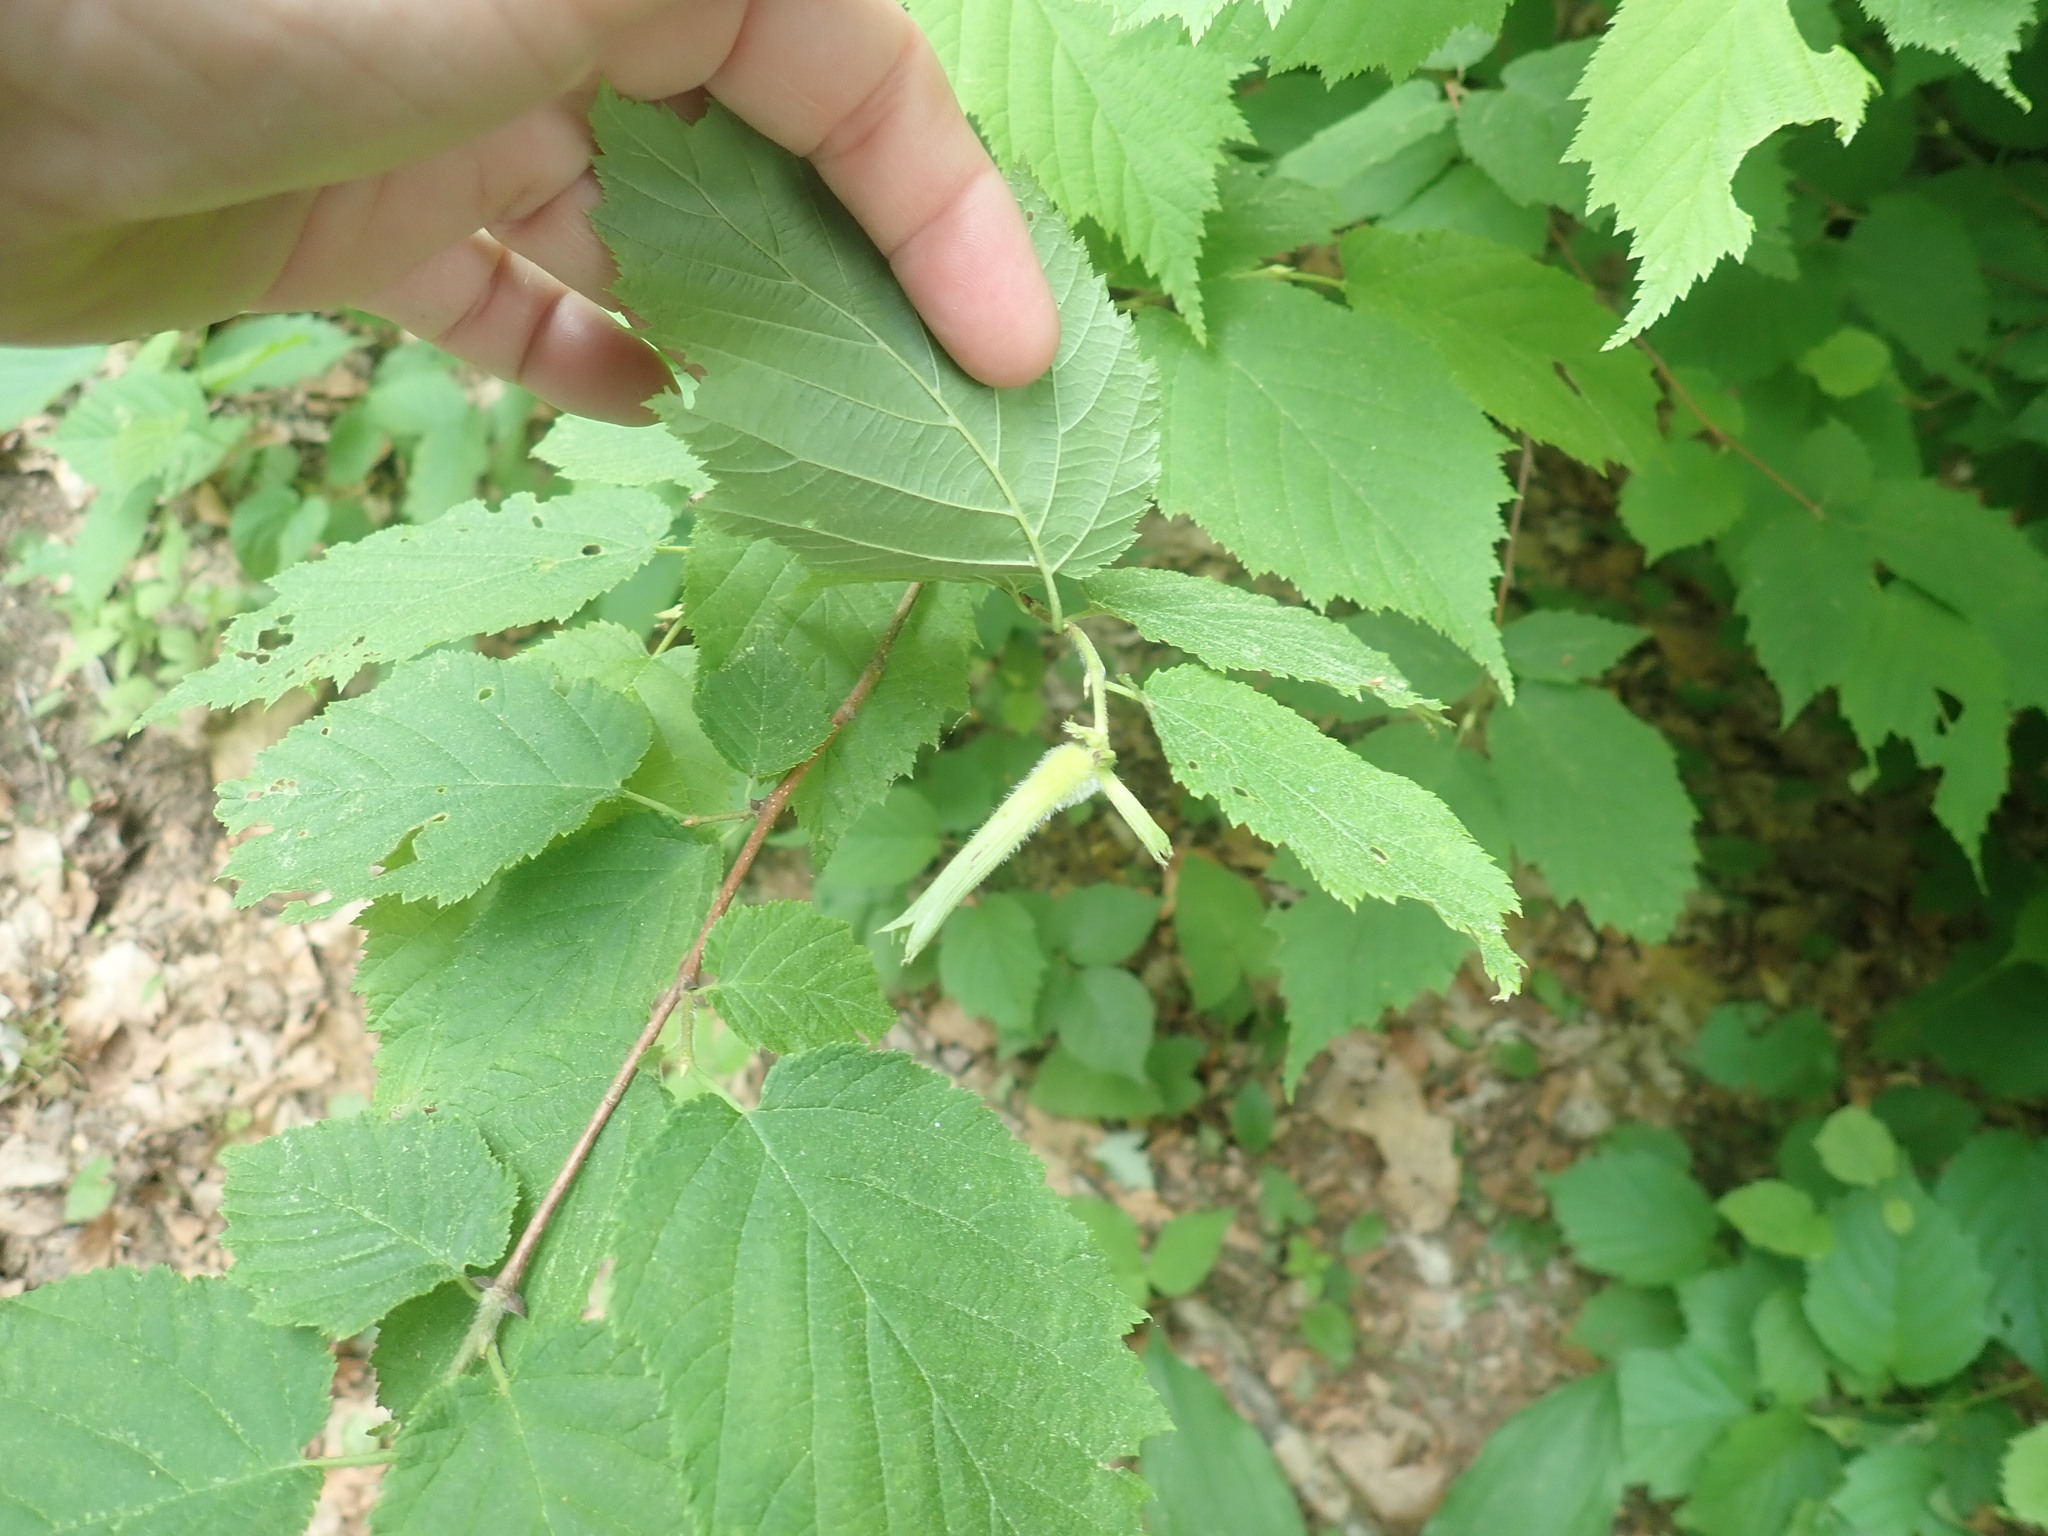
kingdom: Plantae
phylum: Tracheophyta
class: Magnoliopsida
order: Fagales
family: Betulaceae
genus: Corylus
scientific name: Corylus cornuta
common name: Beaked hazel
